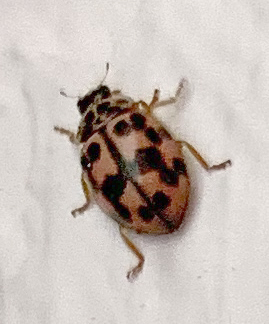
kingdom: Animalia
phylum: Arthropoda
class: Insecta
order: Coleoptera
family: Coccinellidae
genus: Oenopia
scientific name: Oenopia conglobata
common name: Ladybird beetle
